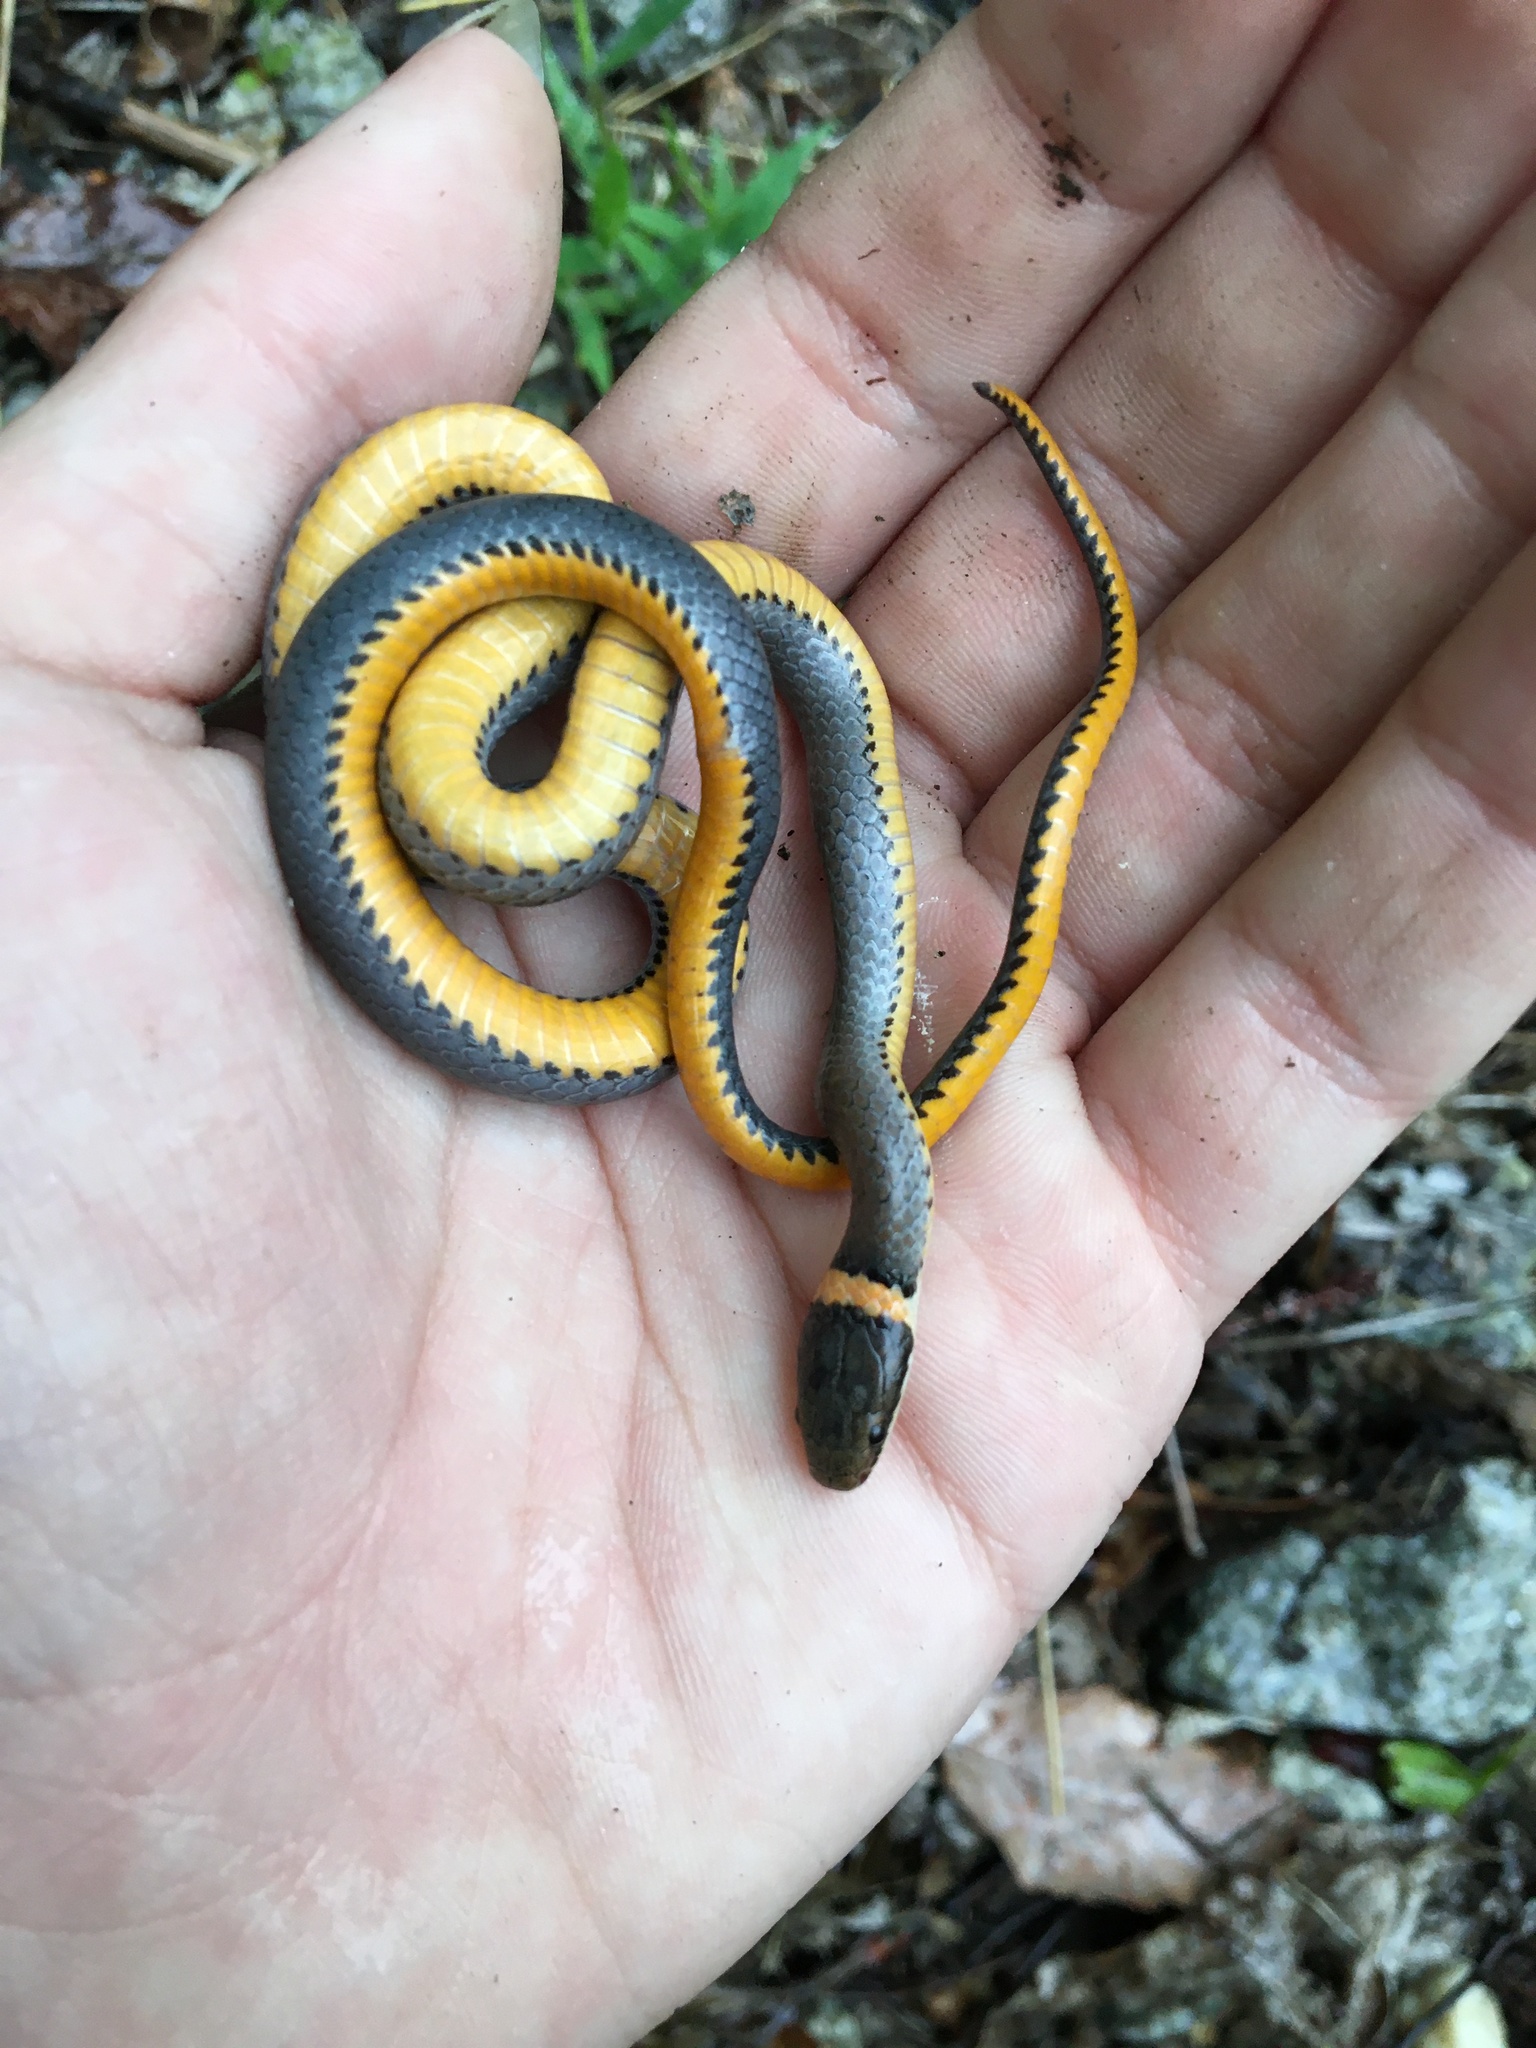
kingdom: Animalia
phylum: Chordata
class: Squamata
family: Colubridae
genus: Diadophis
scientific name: Diadophis punctatus
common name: Ringneck snake
